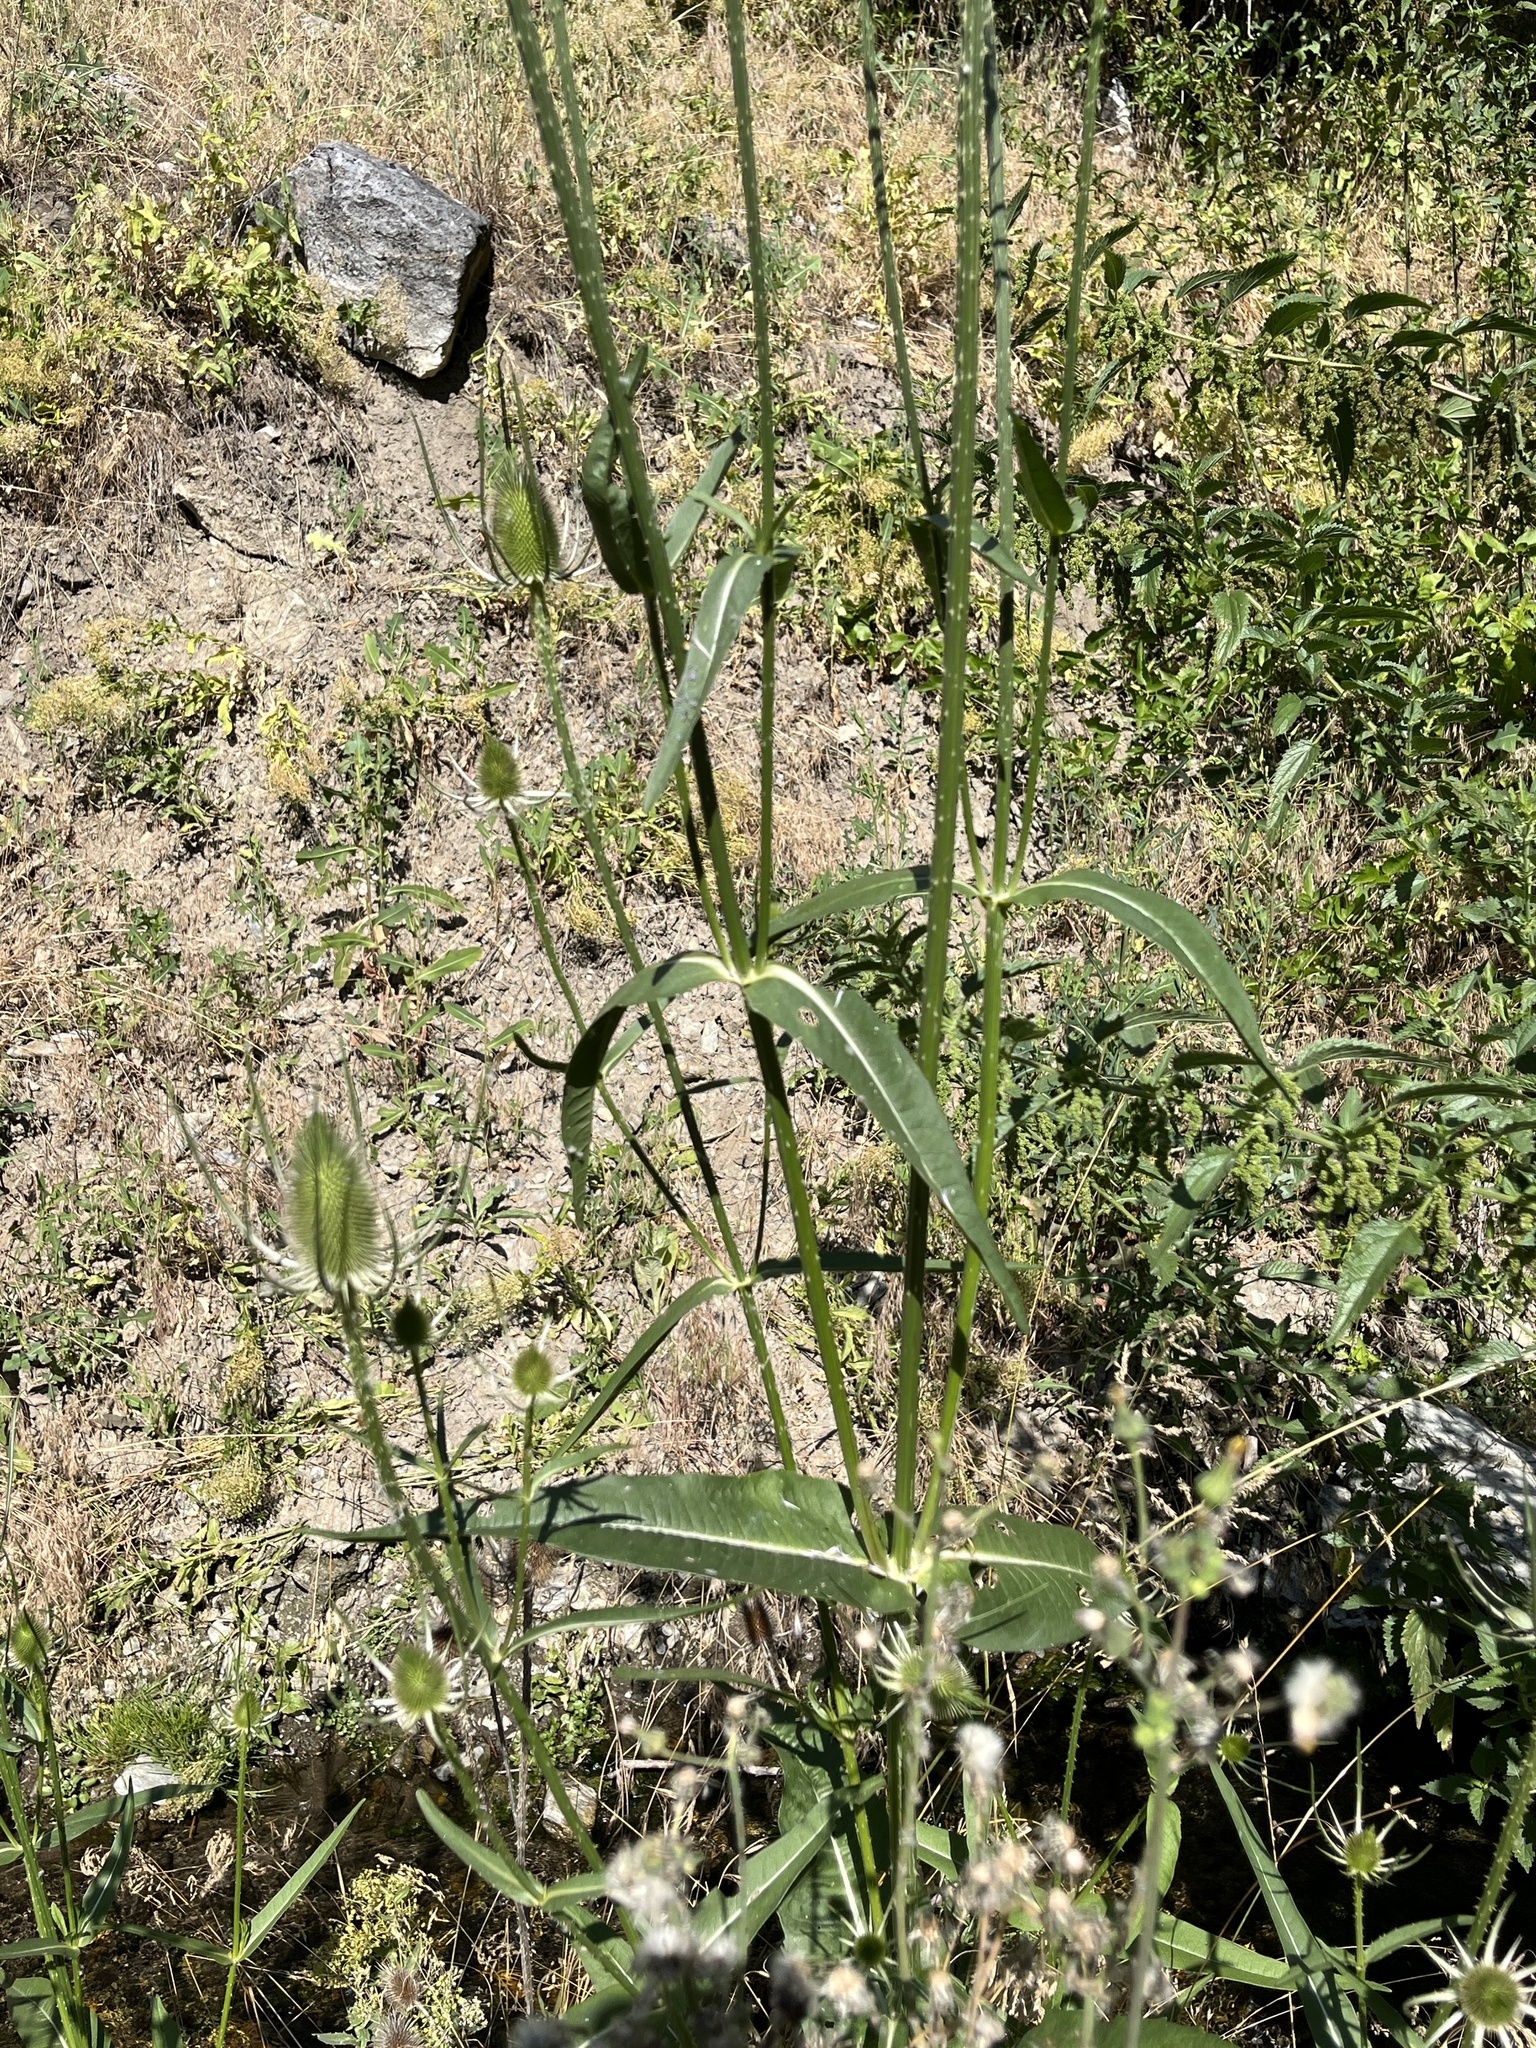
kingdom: Plantae
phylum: Tracheophyta
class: Magnoliopsida
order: Dipsacales
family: Caprifoliaceae
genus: Dipsacus
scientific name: Dipsacus fullonum
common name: Teasel
